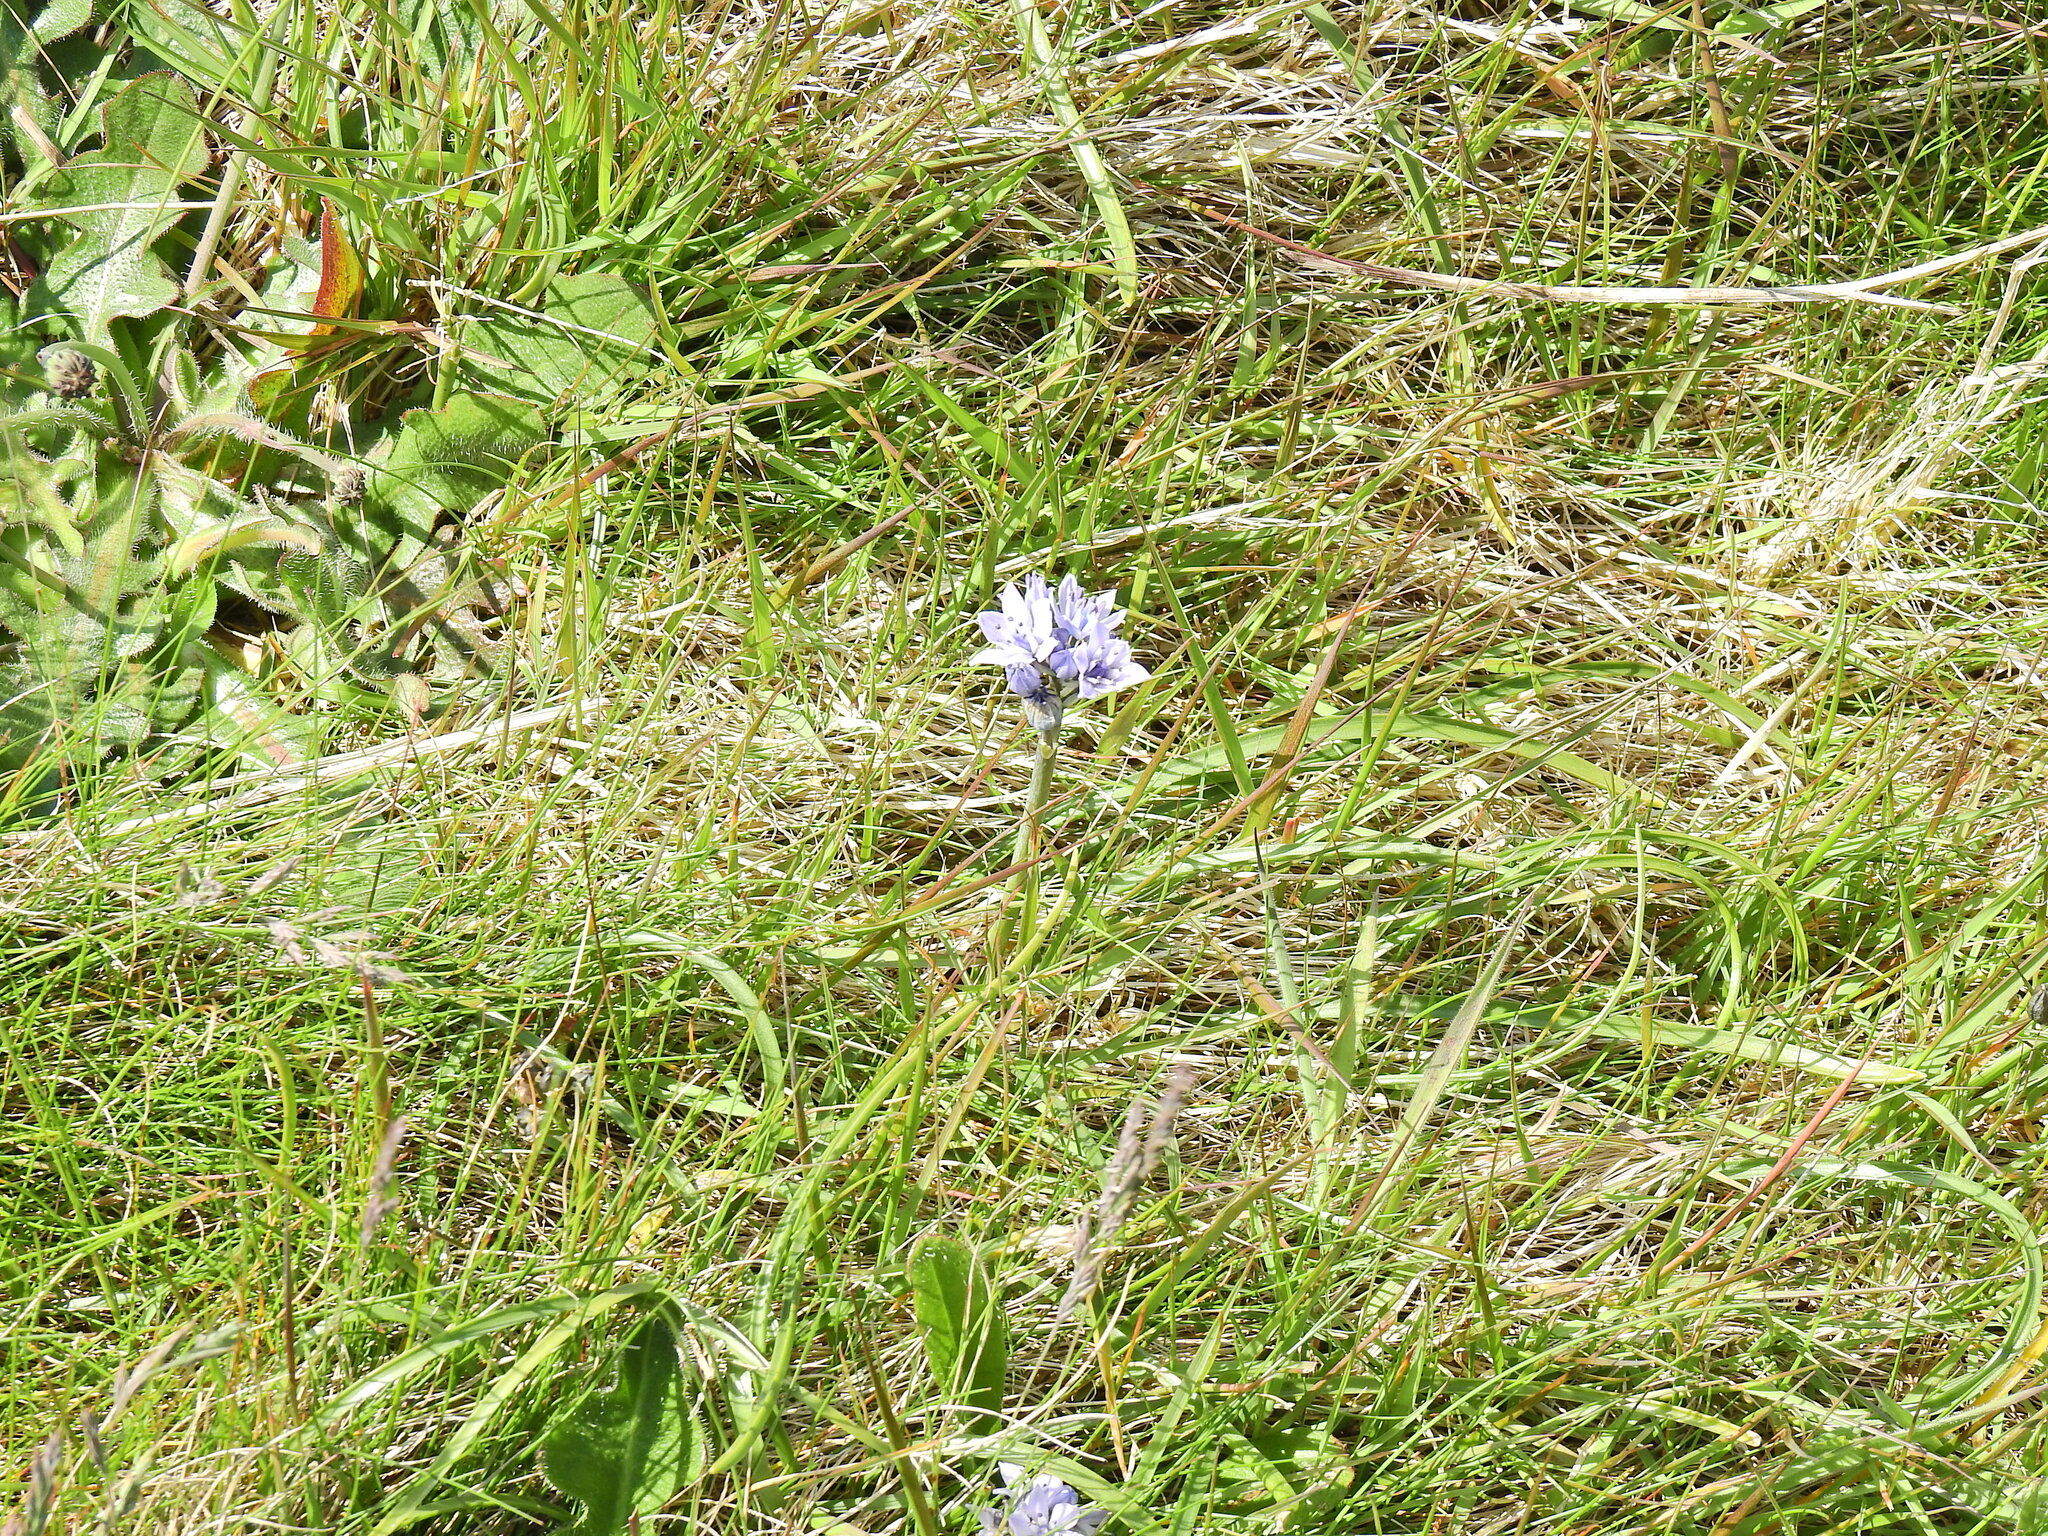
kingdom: Plantae
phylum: Tracheophyta
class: Liliopsida
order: Asparagales
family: Asparagaceae
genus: Scilla
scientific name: Scilla verna
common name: Spring squill
